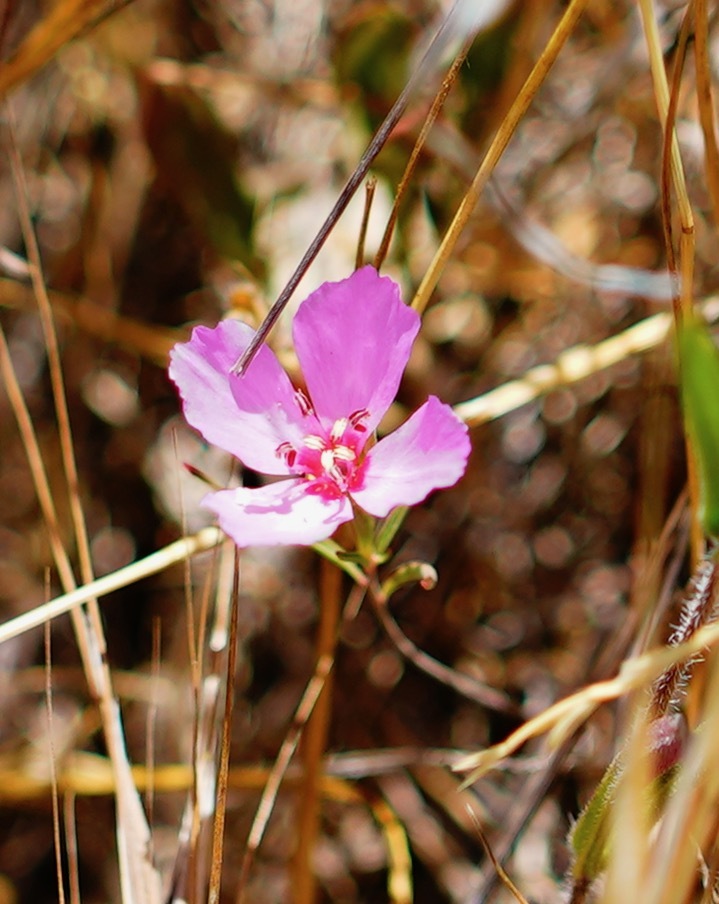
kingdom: Plantae
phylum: Tracheophyta
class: Magnoliopsida
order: Myrtales
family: Onagraceae
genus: Clarkia
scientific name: Clarkia rubicunda
